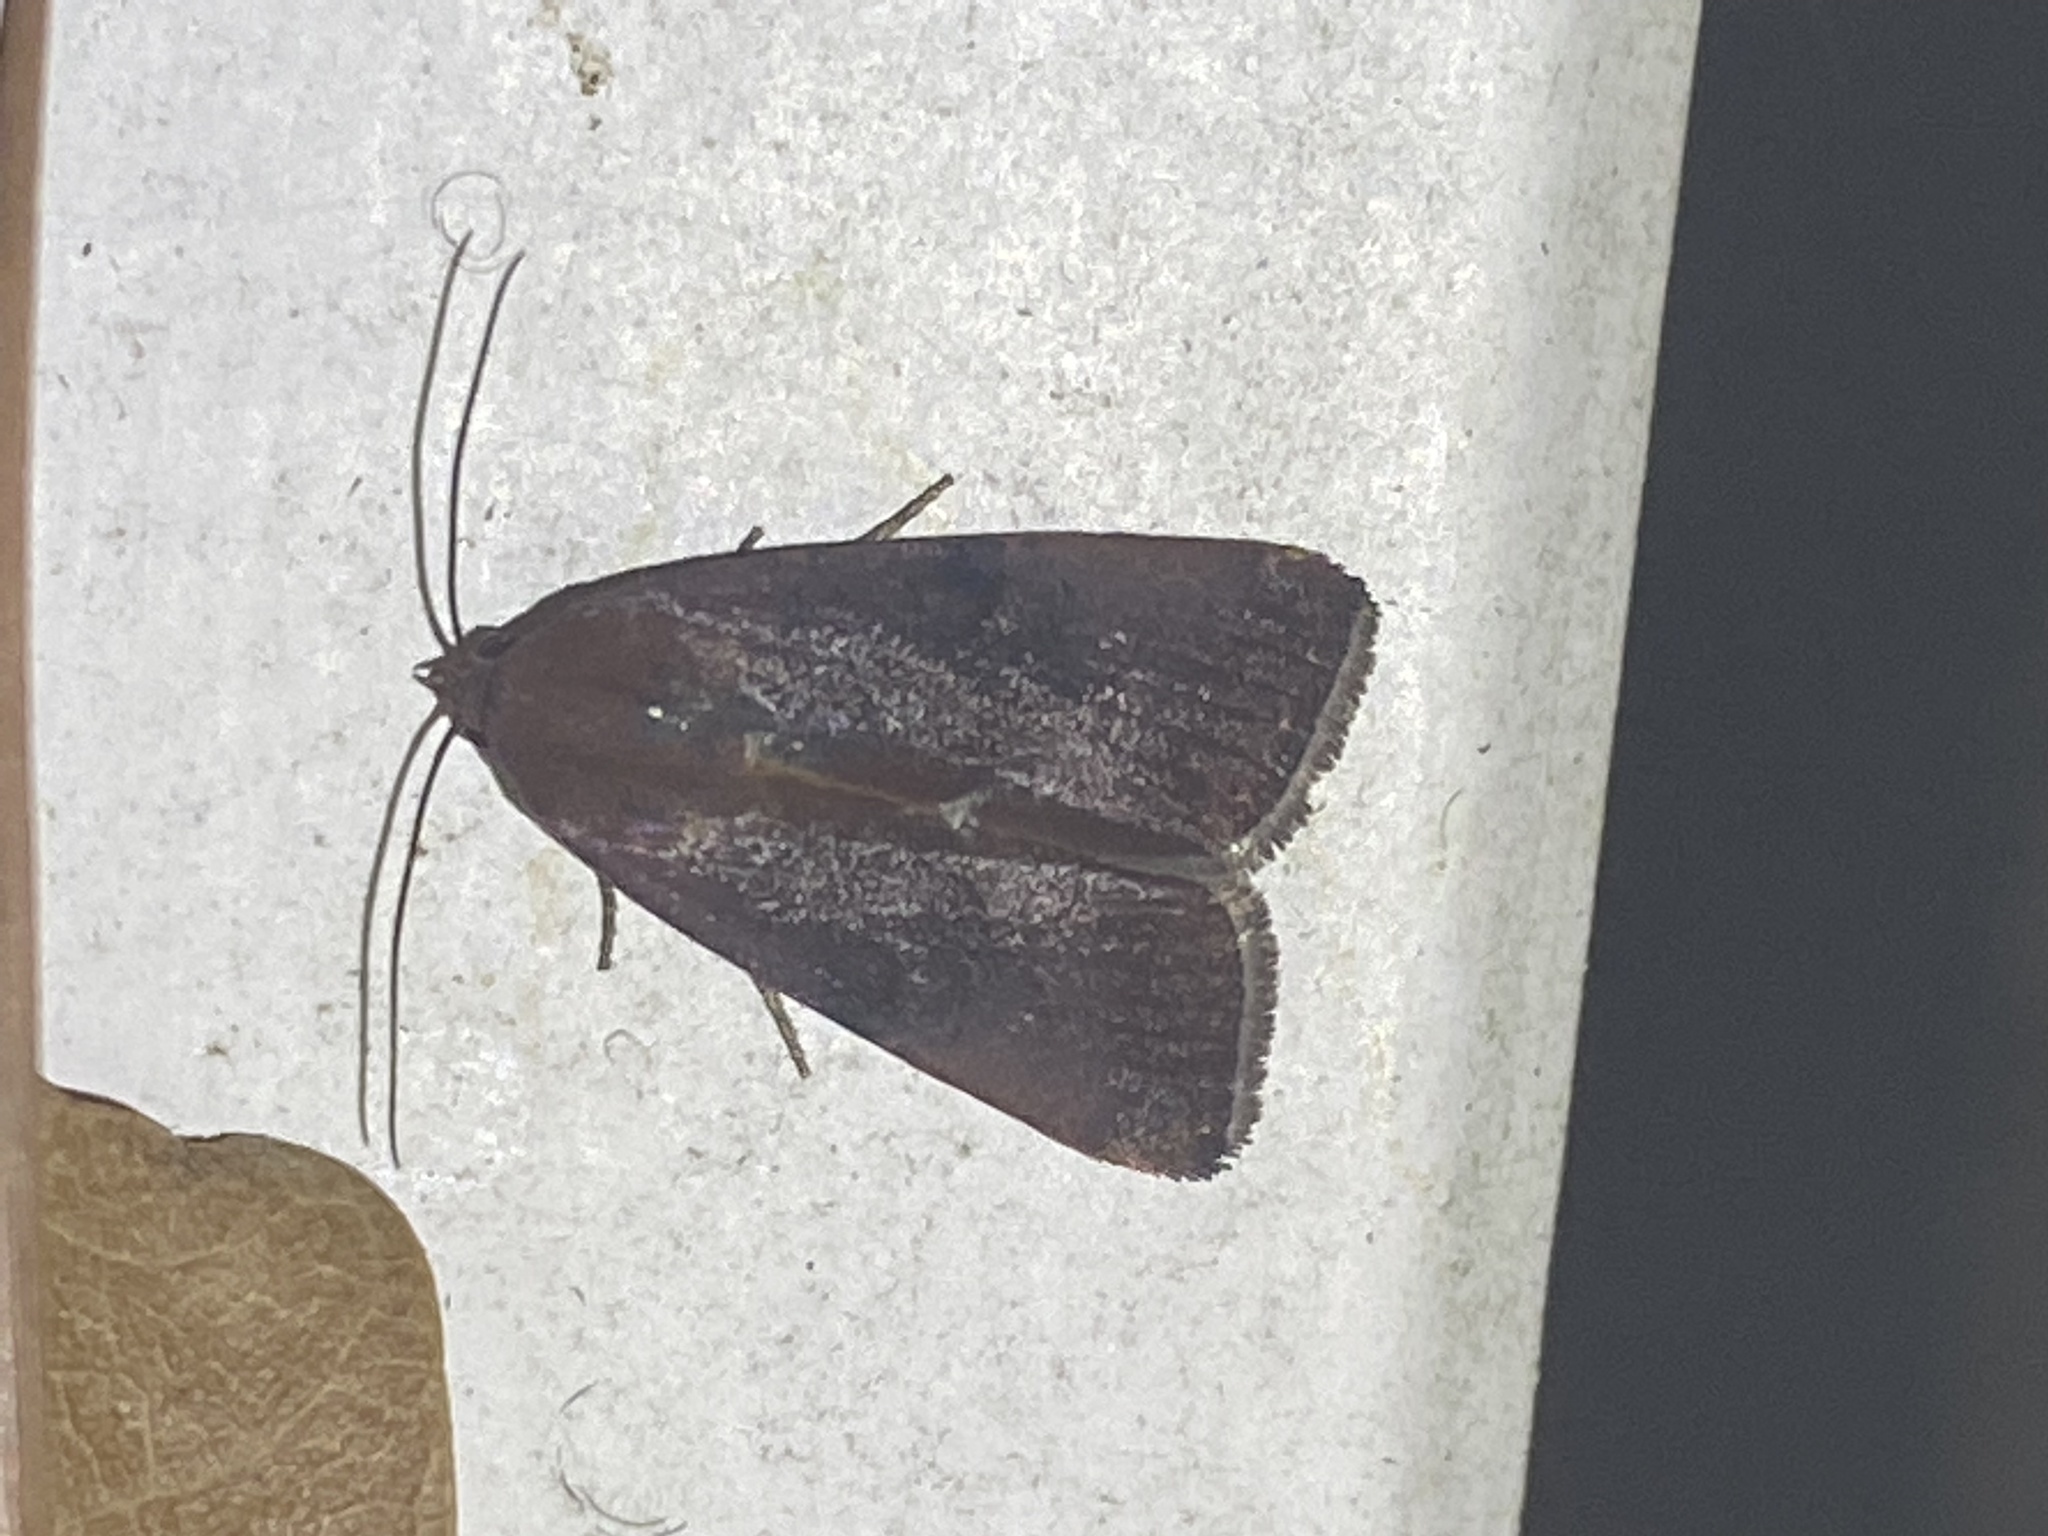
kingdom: Animalia
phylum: Arthropoda
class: Insecta
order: Lepidoptera
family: Noctuidae
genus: Galgula
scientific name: Galgula partita
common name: Wedgeling
